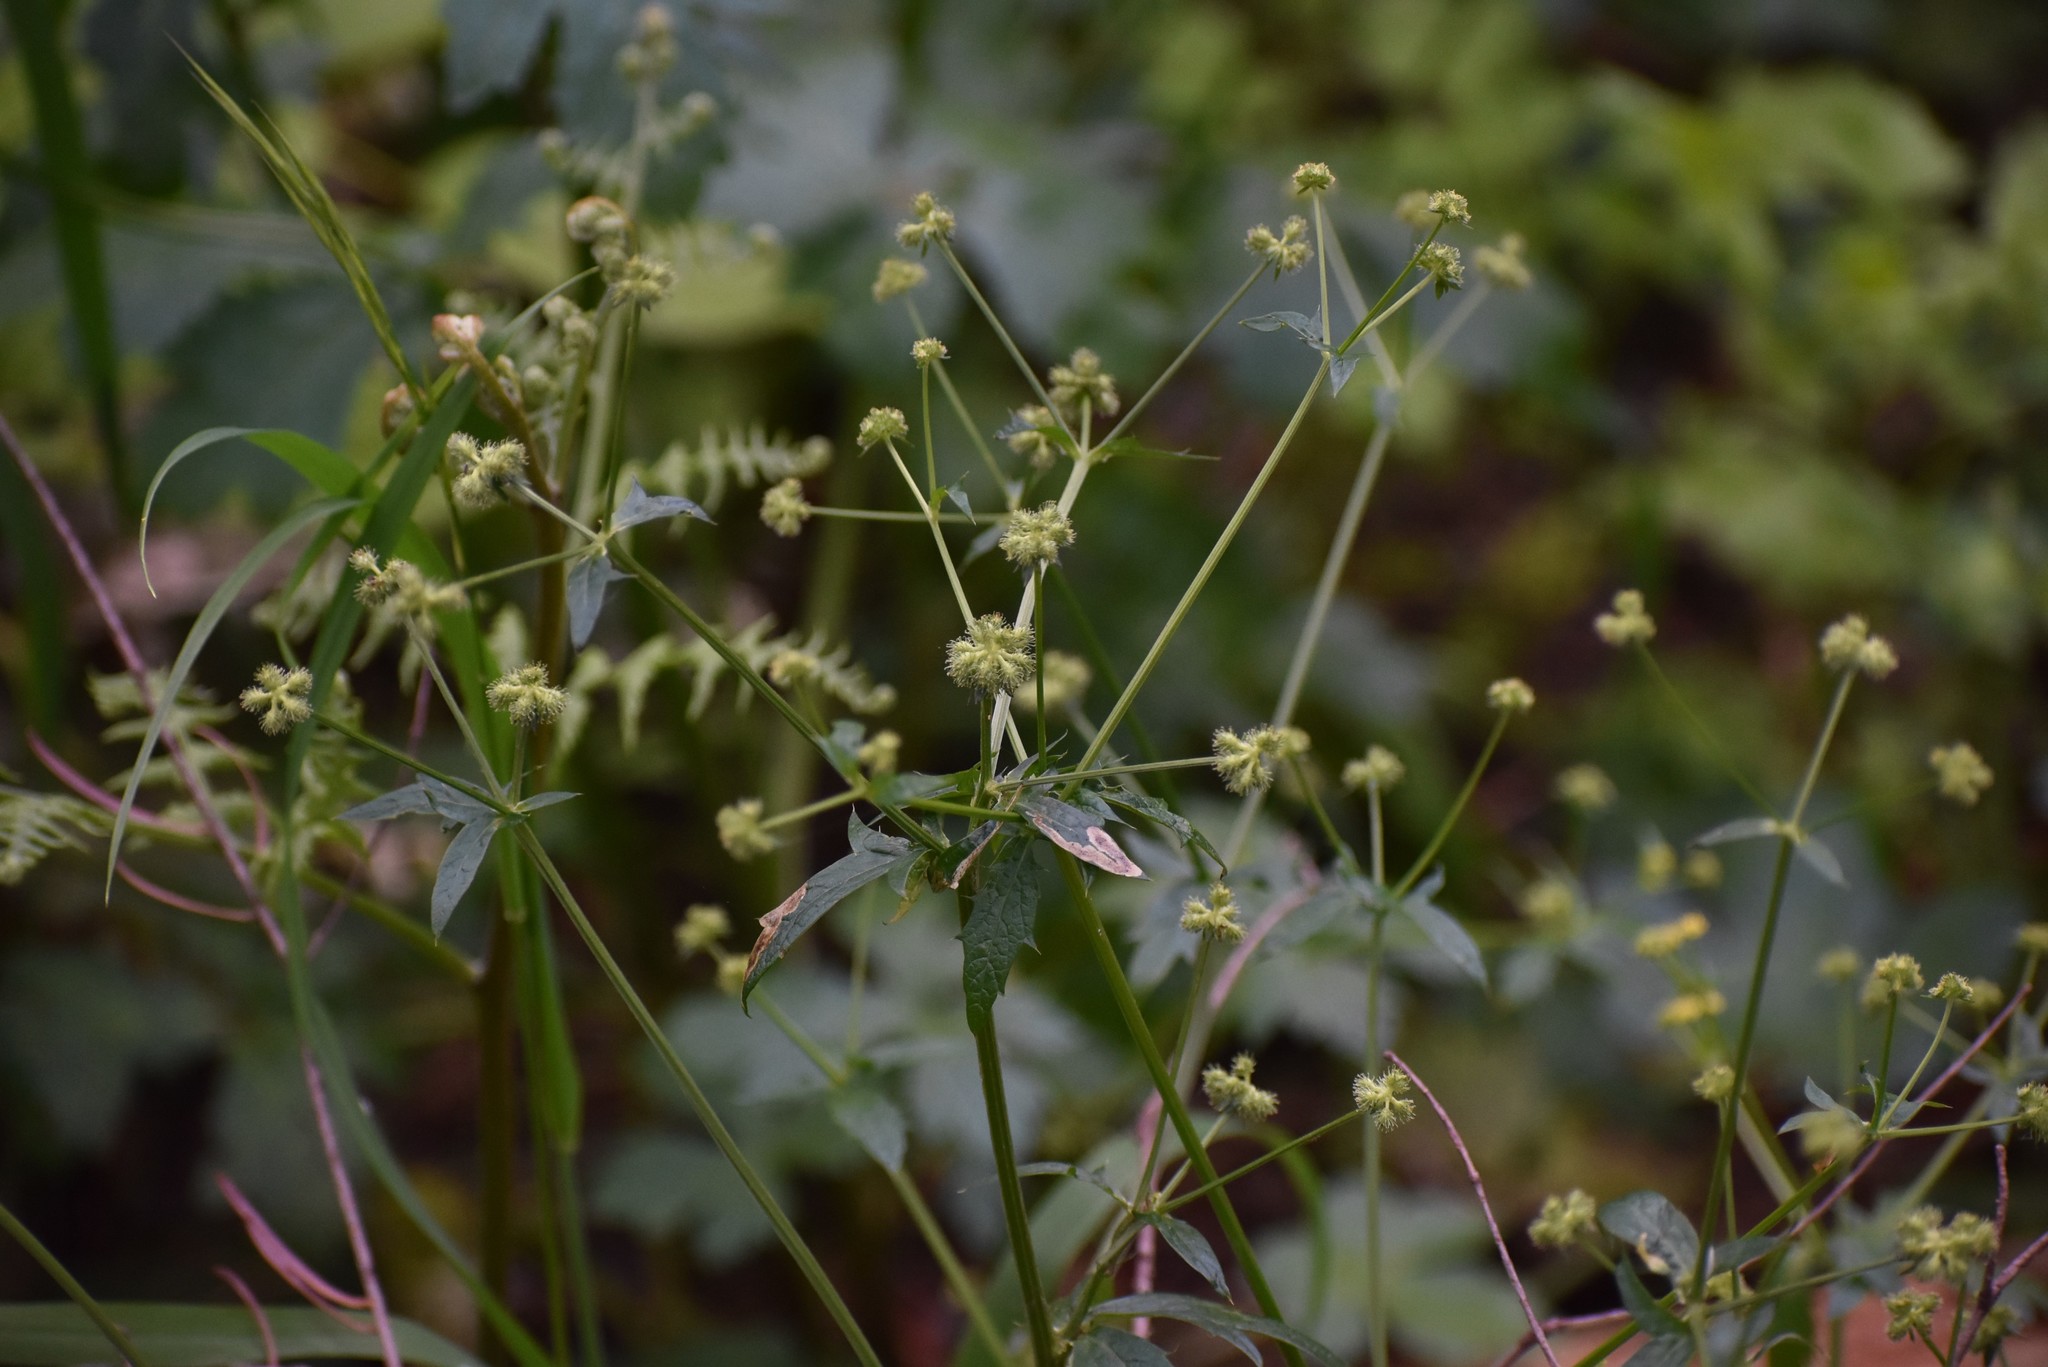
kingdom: Plantae
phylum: Tracheophyta
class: Magnoliopsida
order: Apiales
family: Apiaceae
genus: Sanicula
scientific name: Sanicula crassicaulis
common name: Western snakeroot
